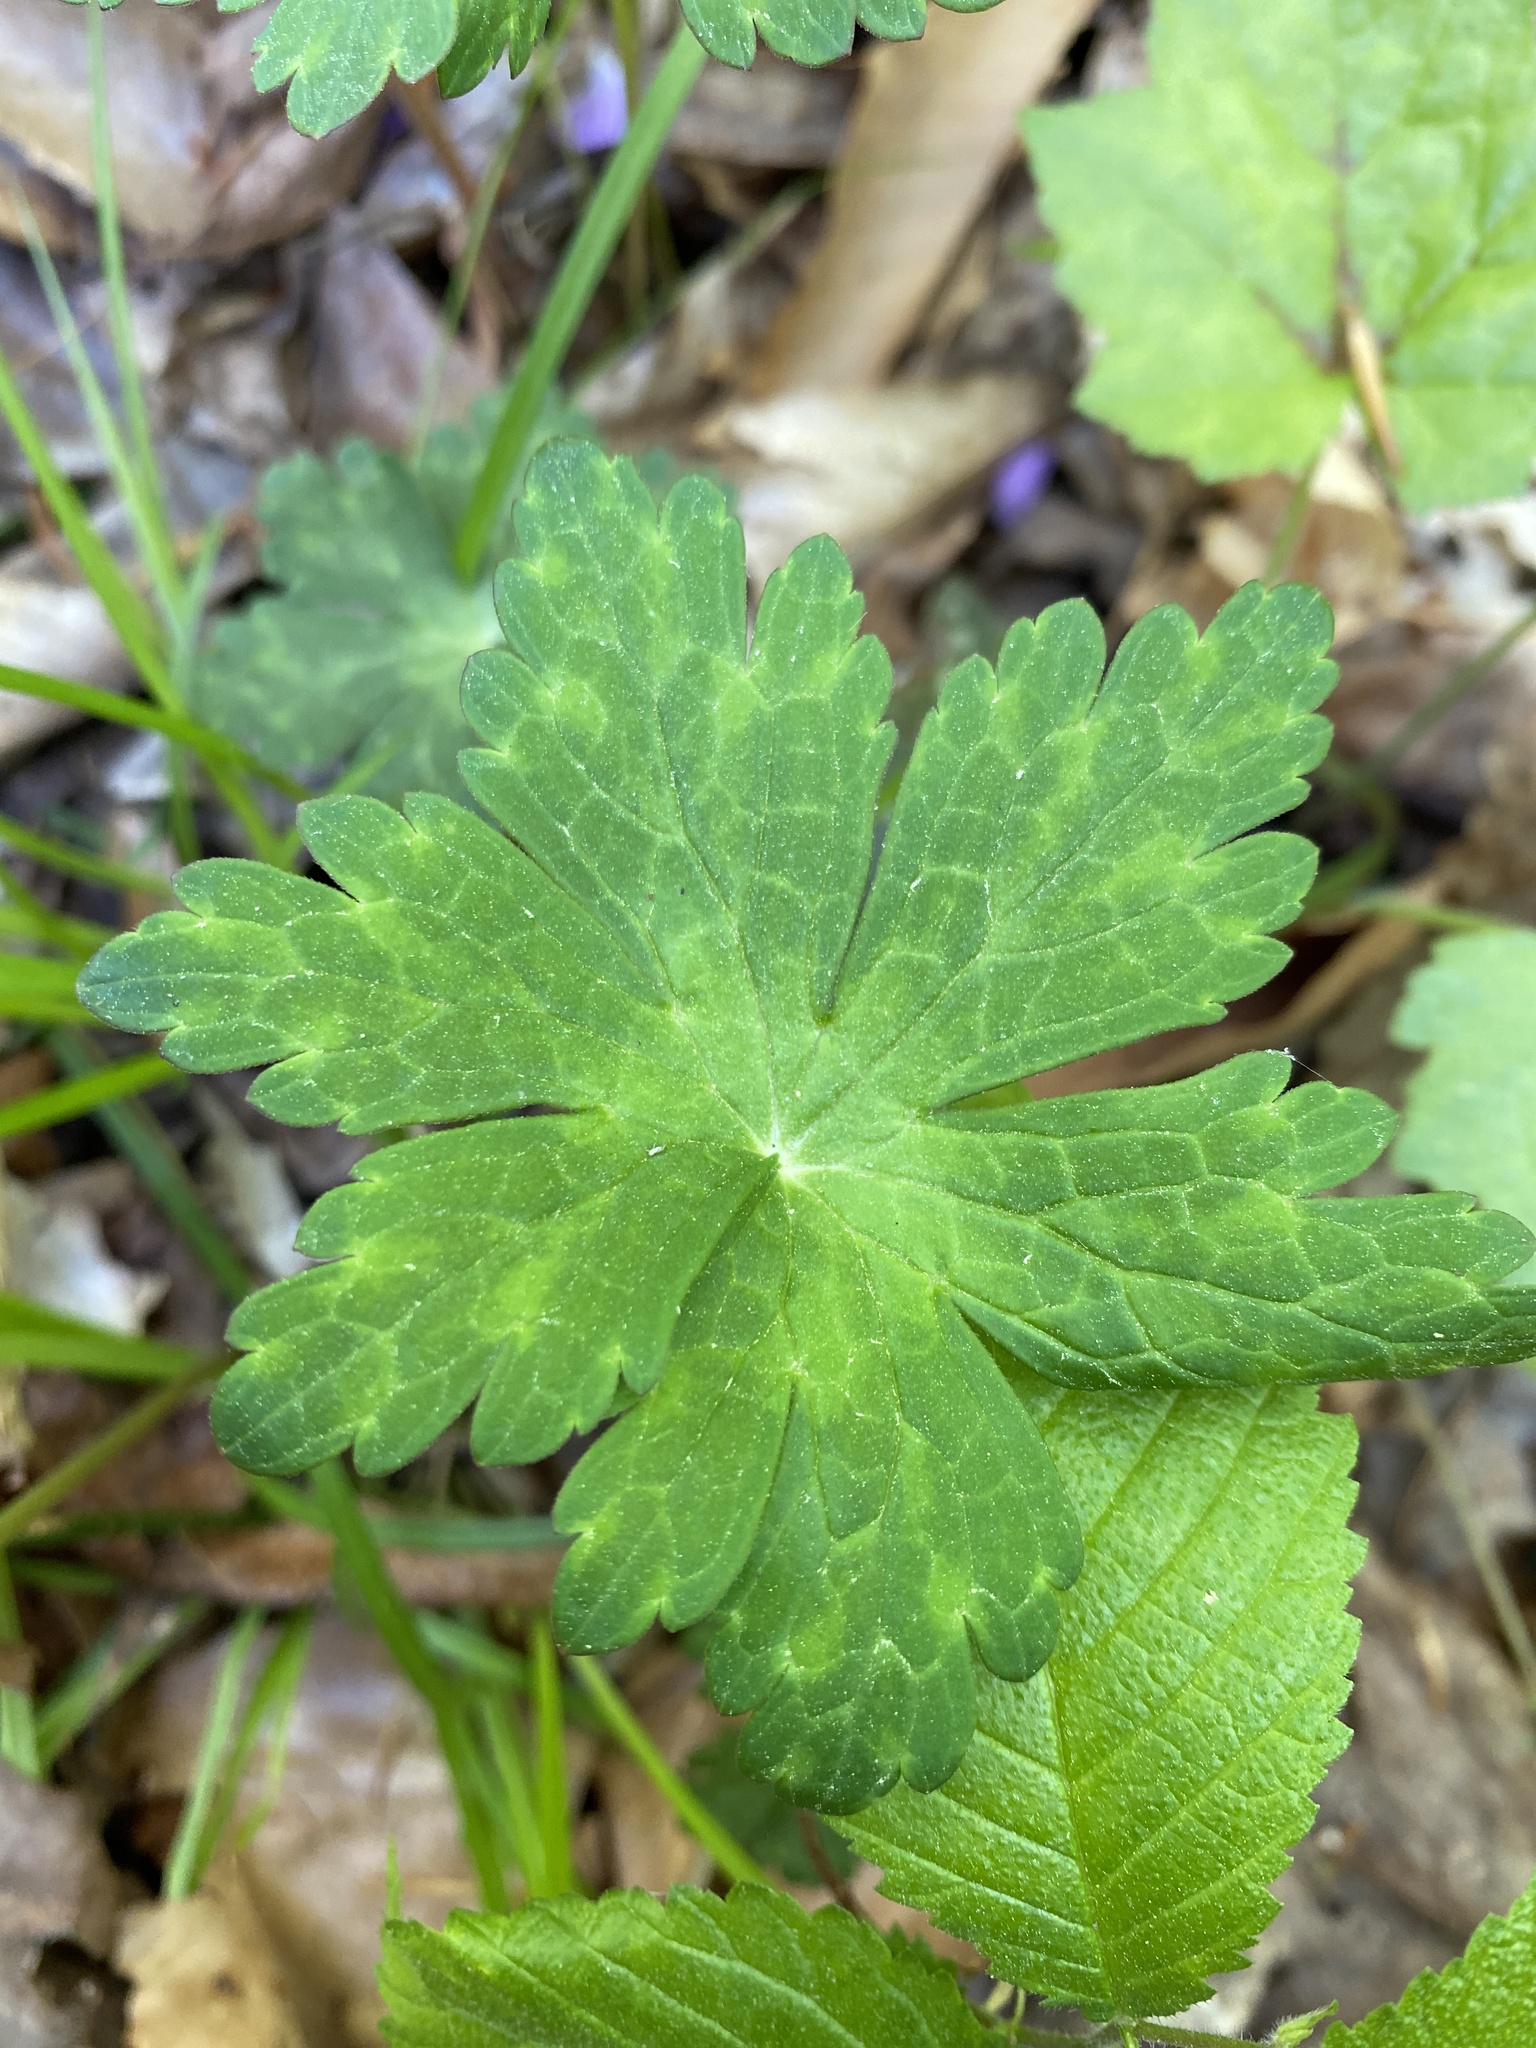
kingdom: Plantae
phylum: Tracheophyta
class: Magnoliopsida
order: Geraniales
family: Geraniaceae
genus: Geranium
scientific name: Geranium maculatum
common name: Spotted geranium
